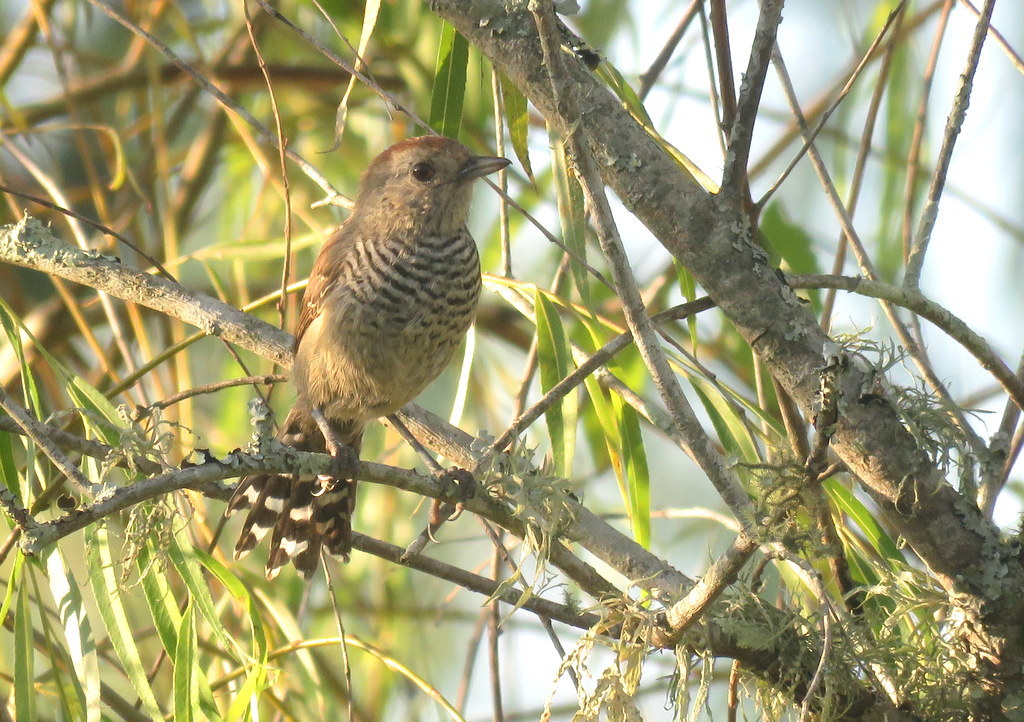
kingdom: Animalia
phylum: Chordata
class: Aves
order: Passeriformes
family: Thamnophilidae
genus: Thamnophilus
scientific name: Thamnophilus ruficapillus
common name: Rufous-capped antshrike
